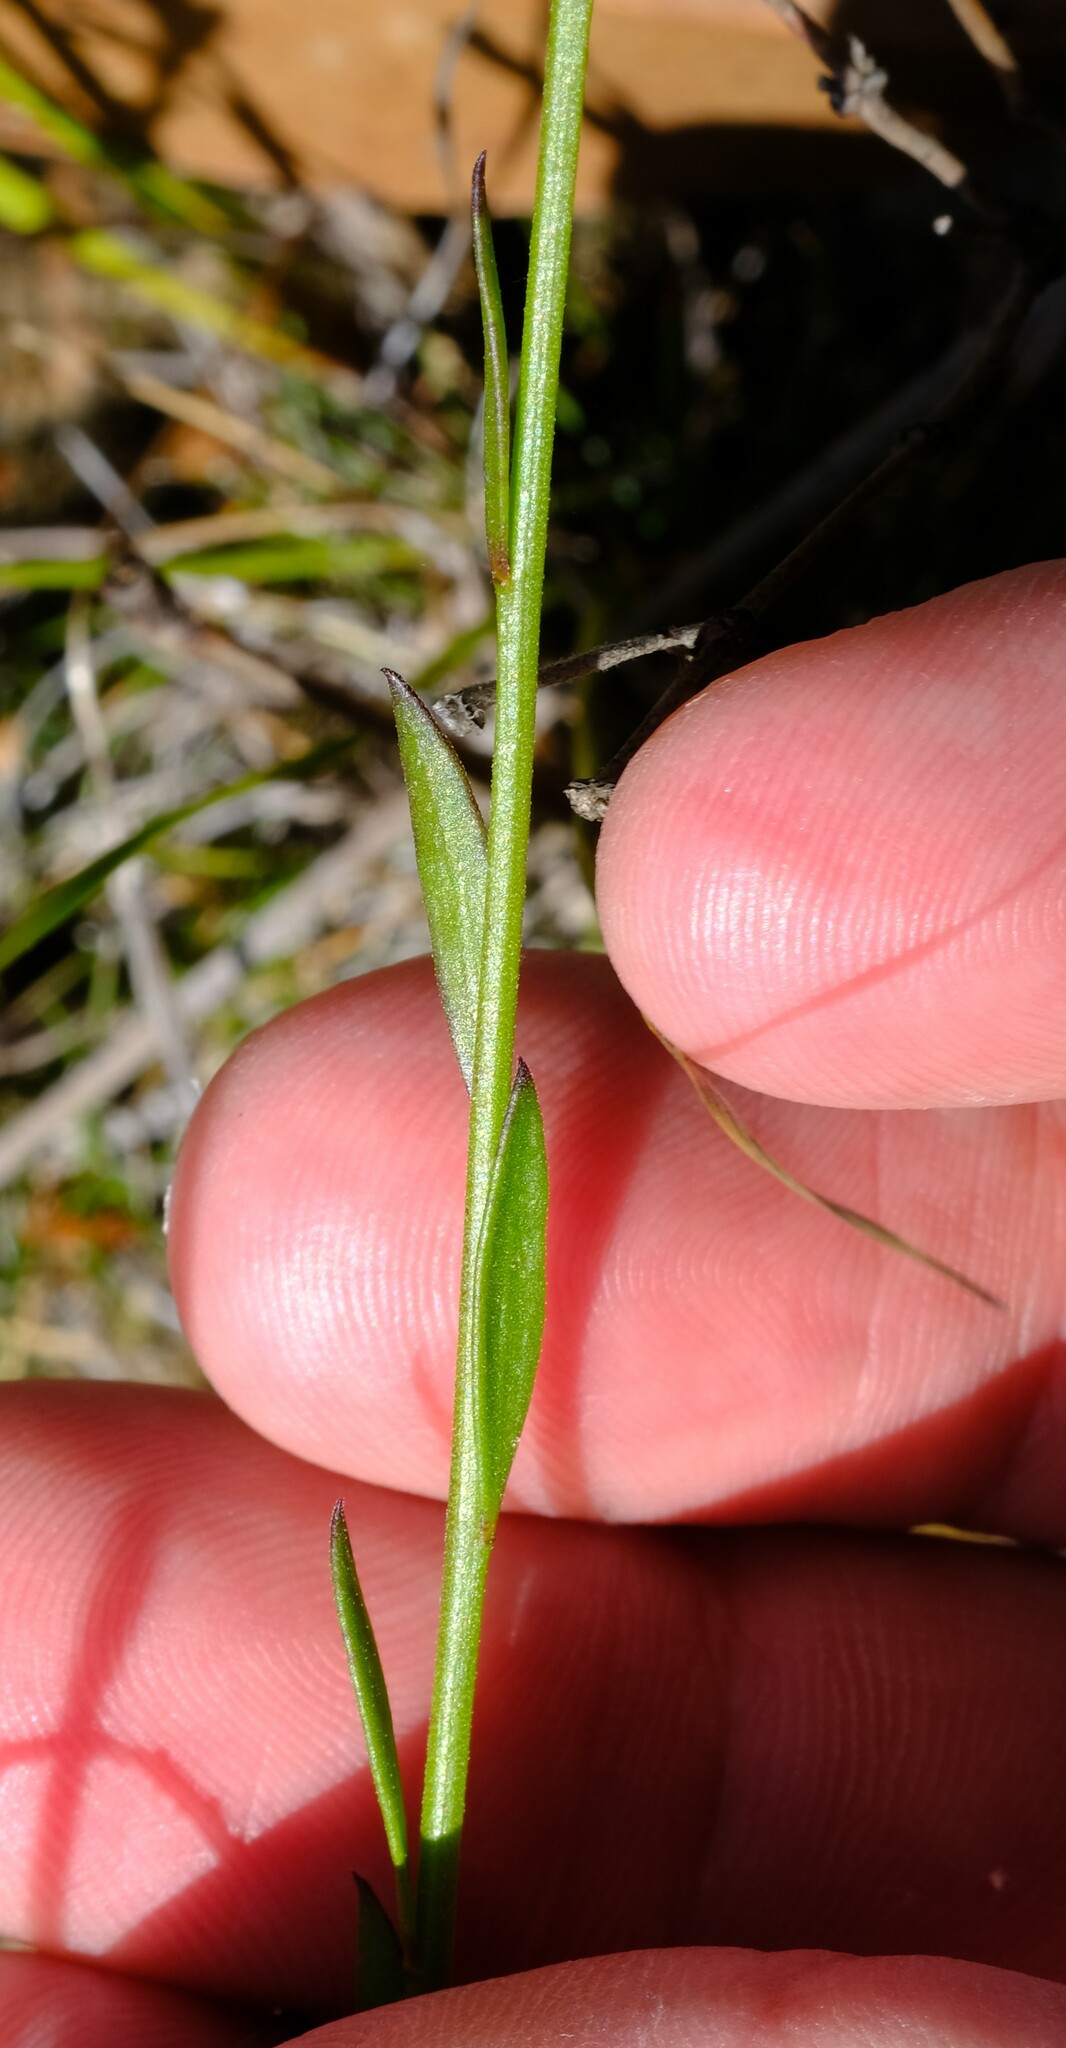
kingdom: Plantae
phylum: Tracheophyta
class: Magnoliopsida
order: Fabales
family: Polygalaceae
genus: Comesperma
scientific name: Comesperma calymega
